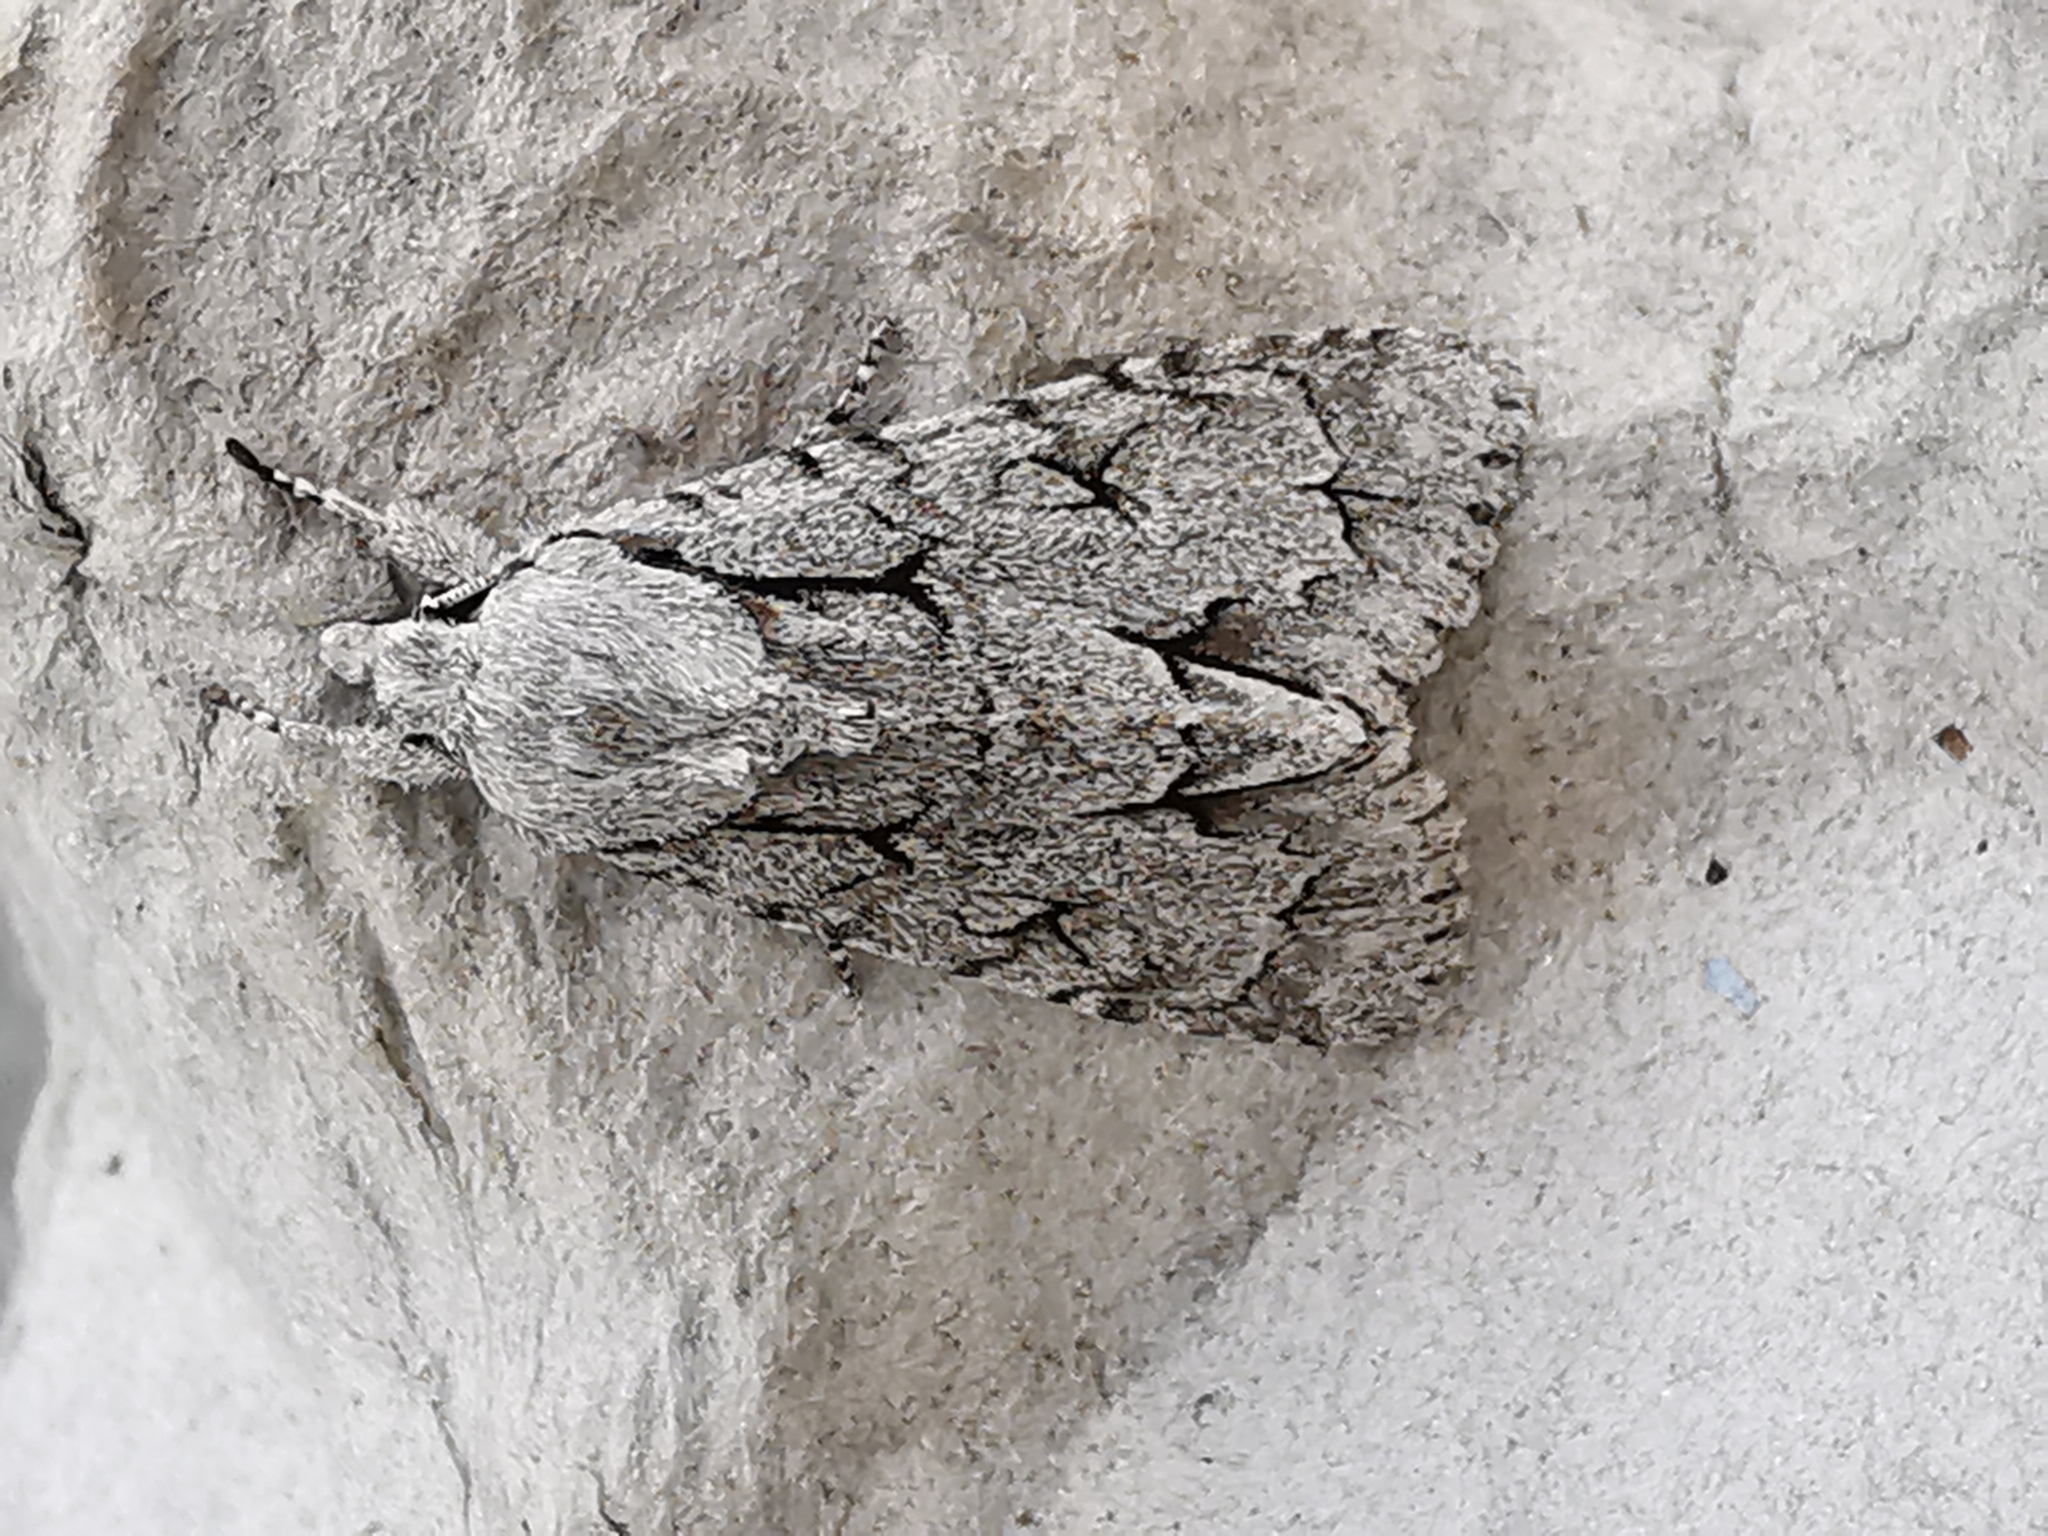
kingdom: Animalia
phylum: Arthropoda
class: Insecta
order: Lepidoptera
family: Noctuidae
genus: Acronicta
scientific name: Acronicta psi
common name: Grey dagger
